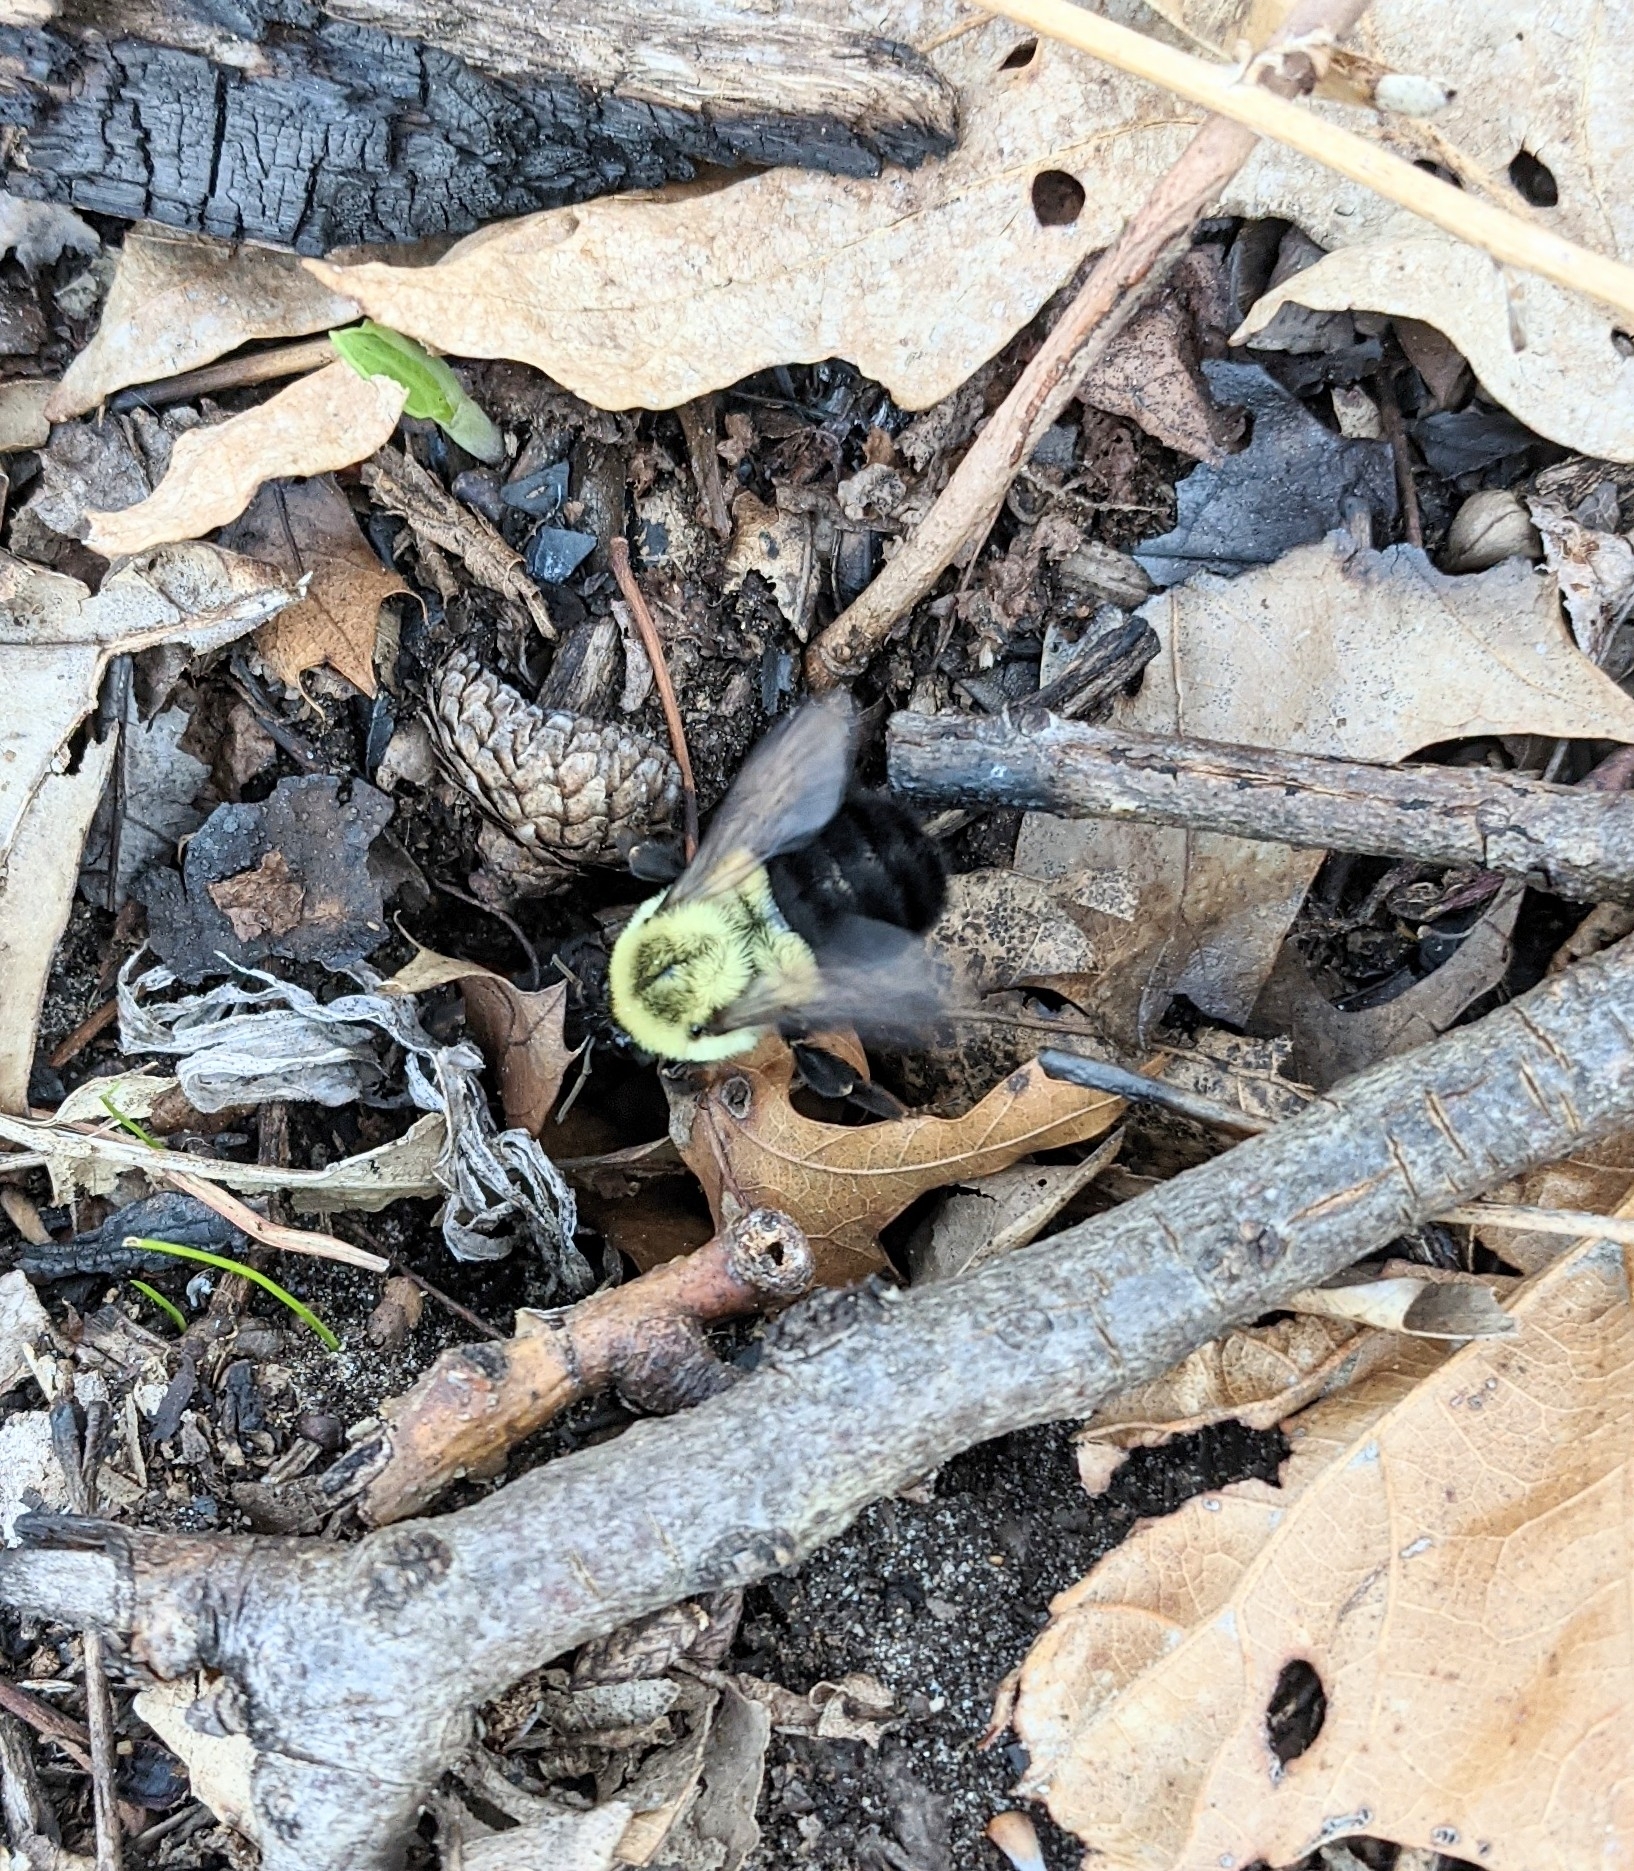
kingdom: Animalia
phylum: Arthropoda
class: Insecta
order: Hymenoptera
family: Apidae
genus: Bombus
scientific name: Bombus impatiens
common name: Common eastern bumble bee
